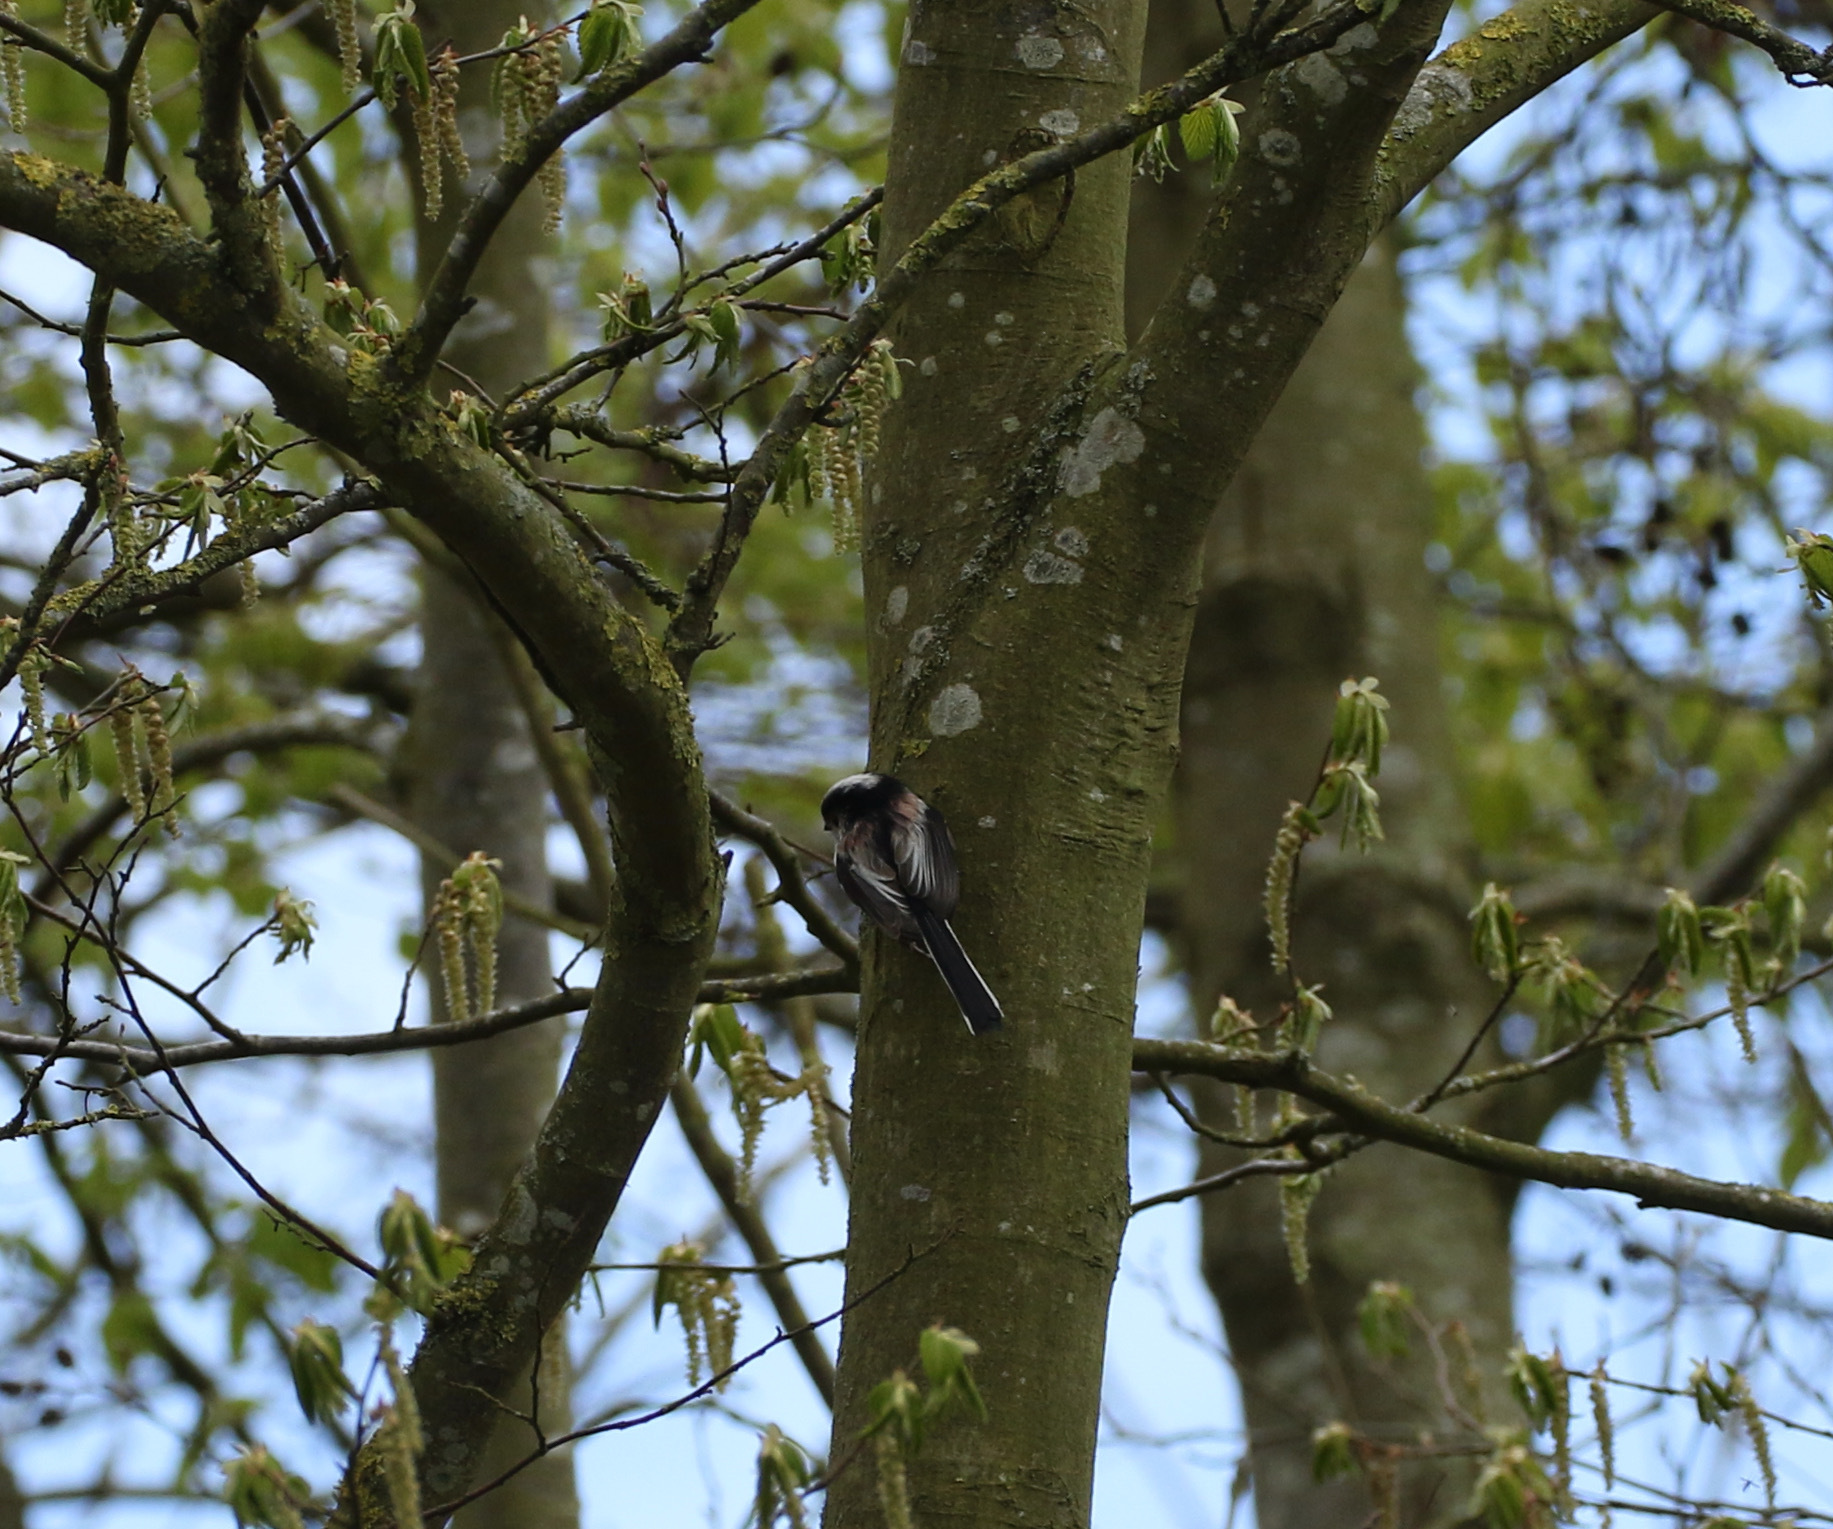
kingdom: Animalia
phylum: Chordata
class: Aves
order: Passeriformes
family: Aegithalidae
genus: Aegithalos
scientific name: Aegithalos caudatus
